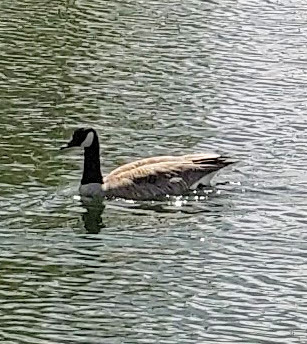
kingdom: Animalia
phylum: Chordata
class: Aves
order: Anseriformes
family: Anatidae
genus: Branta
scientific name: Branta canadensis
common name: Canada goose
